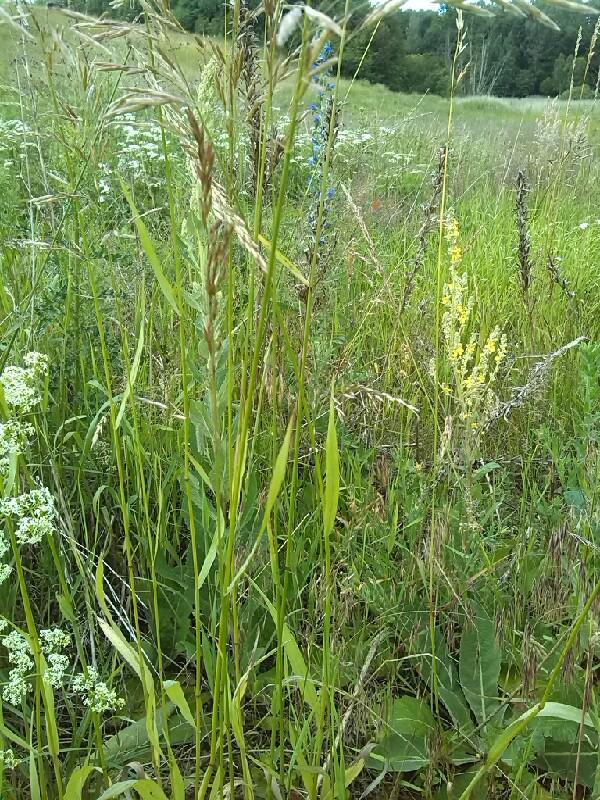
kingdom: Plantae
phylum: Tracheophyta
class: Liliopsida
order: Poales
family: Poaceae
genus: Bromus
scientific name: Bromus inermis
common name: Smooth brome
